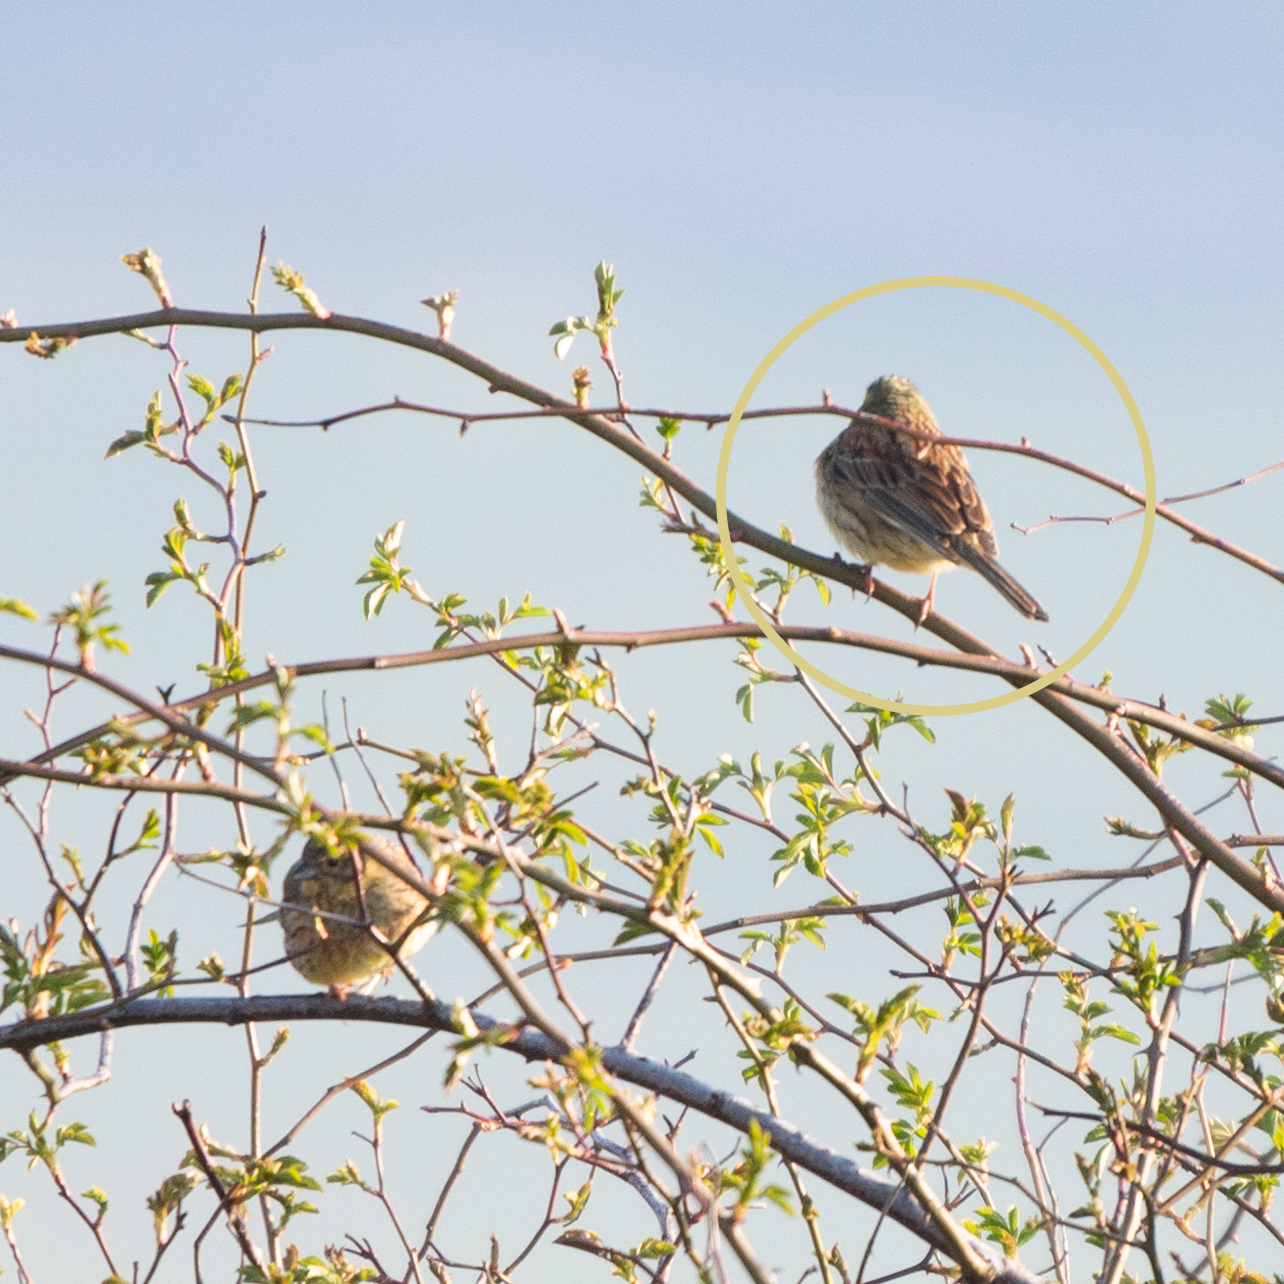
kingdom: Animalia
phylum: Chordata
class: Aves
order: Passeriformes
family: Emberizidae
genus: Emberiza
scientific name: Emberiza cirlus
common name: Cirl bunting
